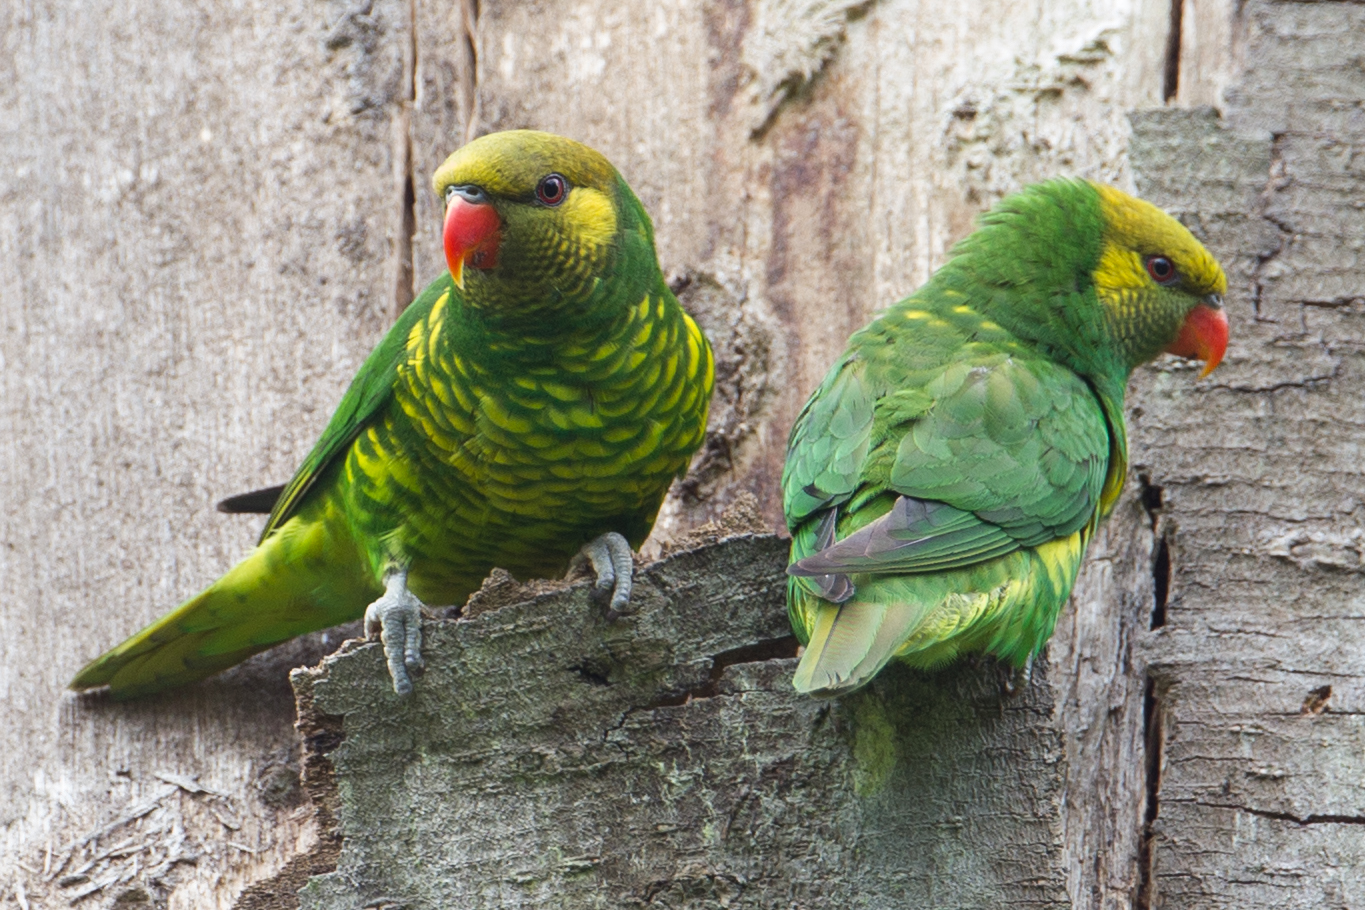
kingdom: Animalia
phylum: Chordata
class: Aves
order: Psittaciformes
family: Psittaculidae
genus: Saudareos
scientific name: Saudareos meyeri
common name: Yellow-cheeked lorikeet
